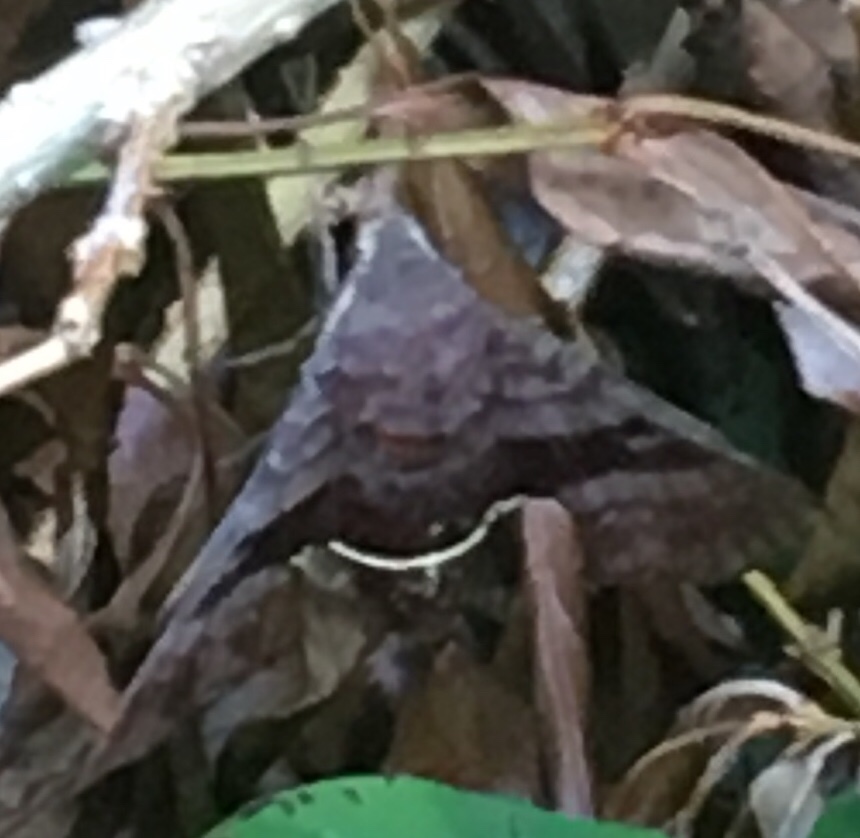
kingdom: Animalia
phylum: Arthropoda
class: Insecta
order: Lepidoptera
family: Sphingidae
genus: Amphion
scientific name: Amphion floridensis
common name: Nessus sphinx
